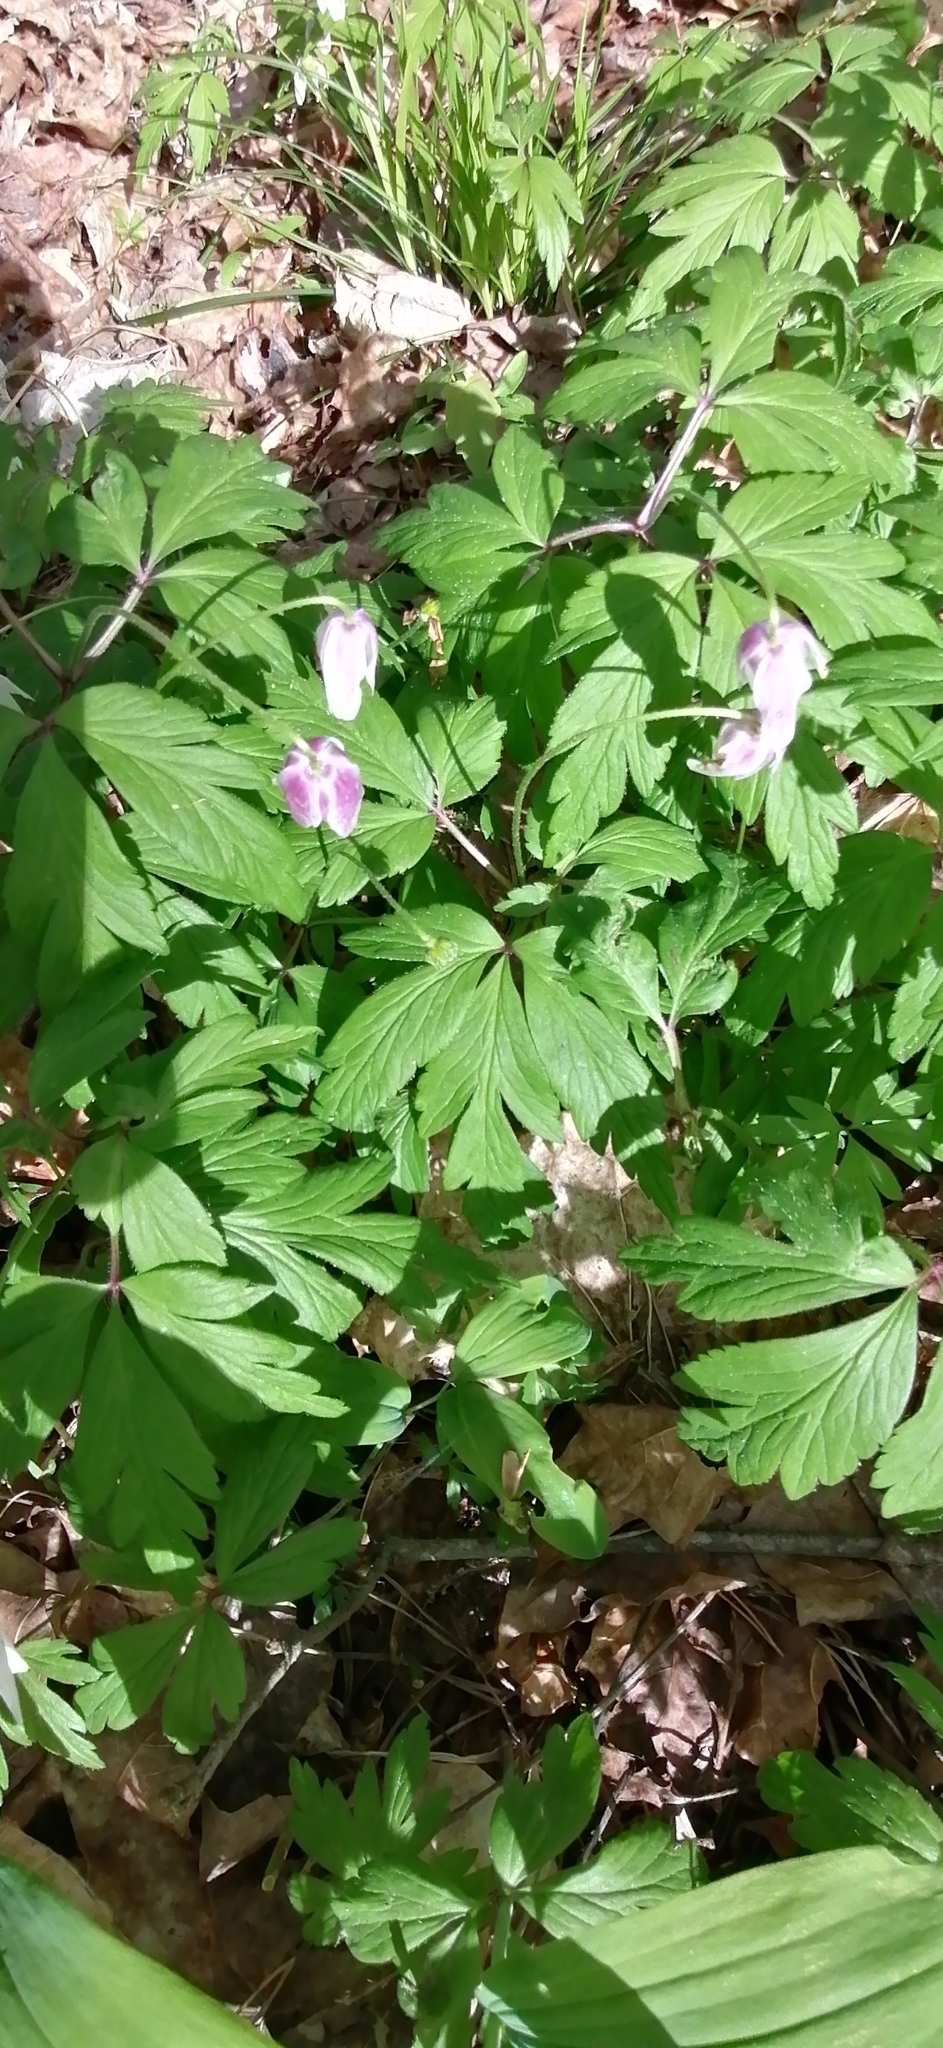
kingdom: Plantae
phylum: Tracheophyta
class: Magnoliopsida
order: Ranunculales
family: Ranunculaceae
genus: Anemone
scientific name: Anemone nemorosa
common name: Wood anemone
